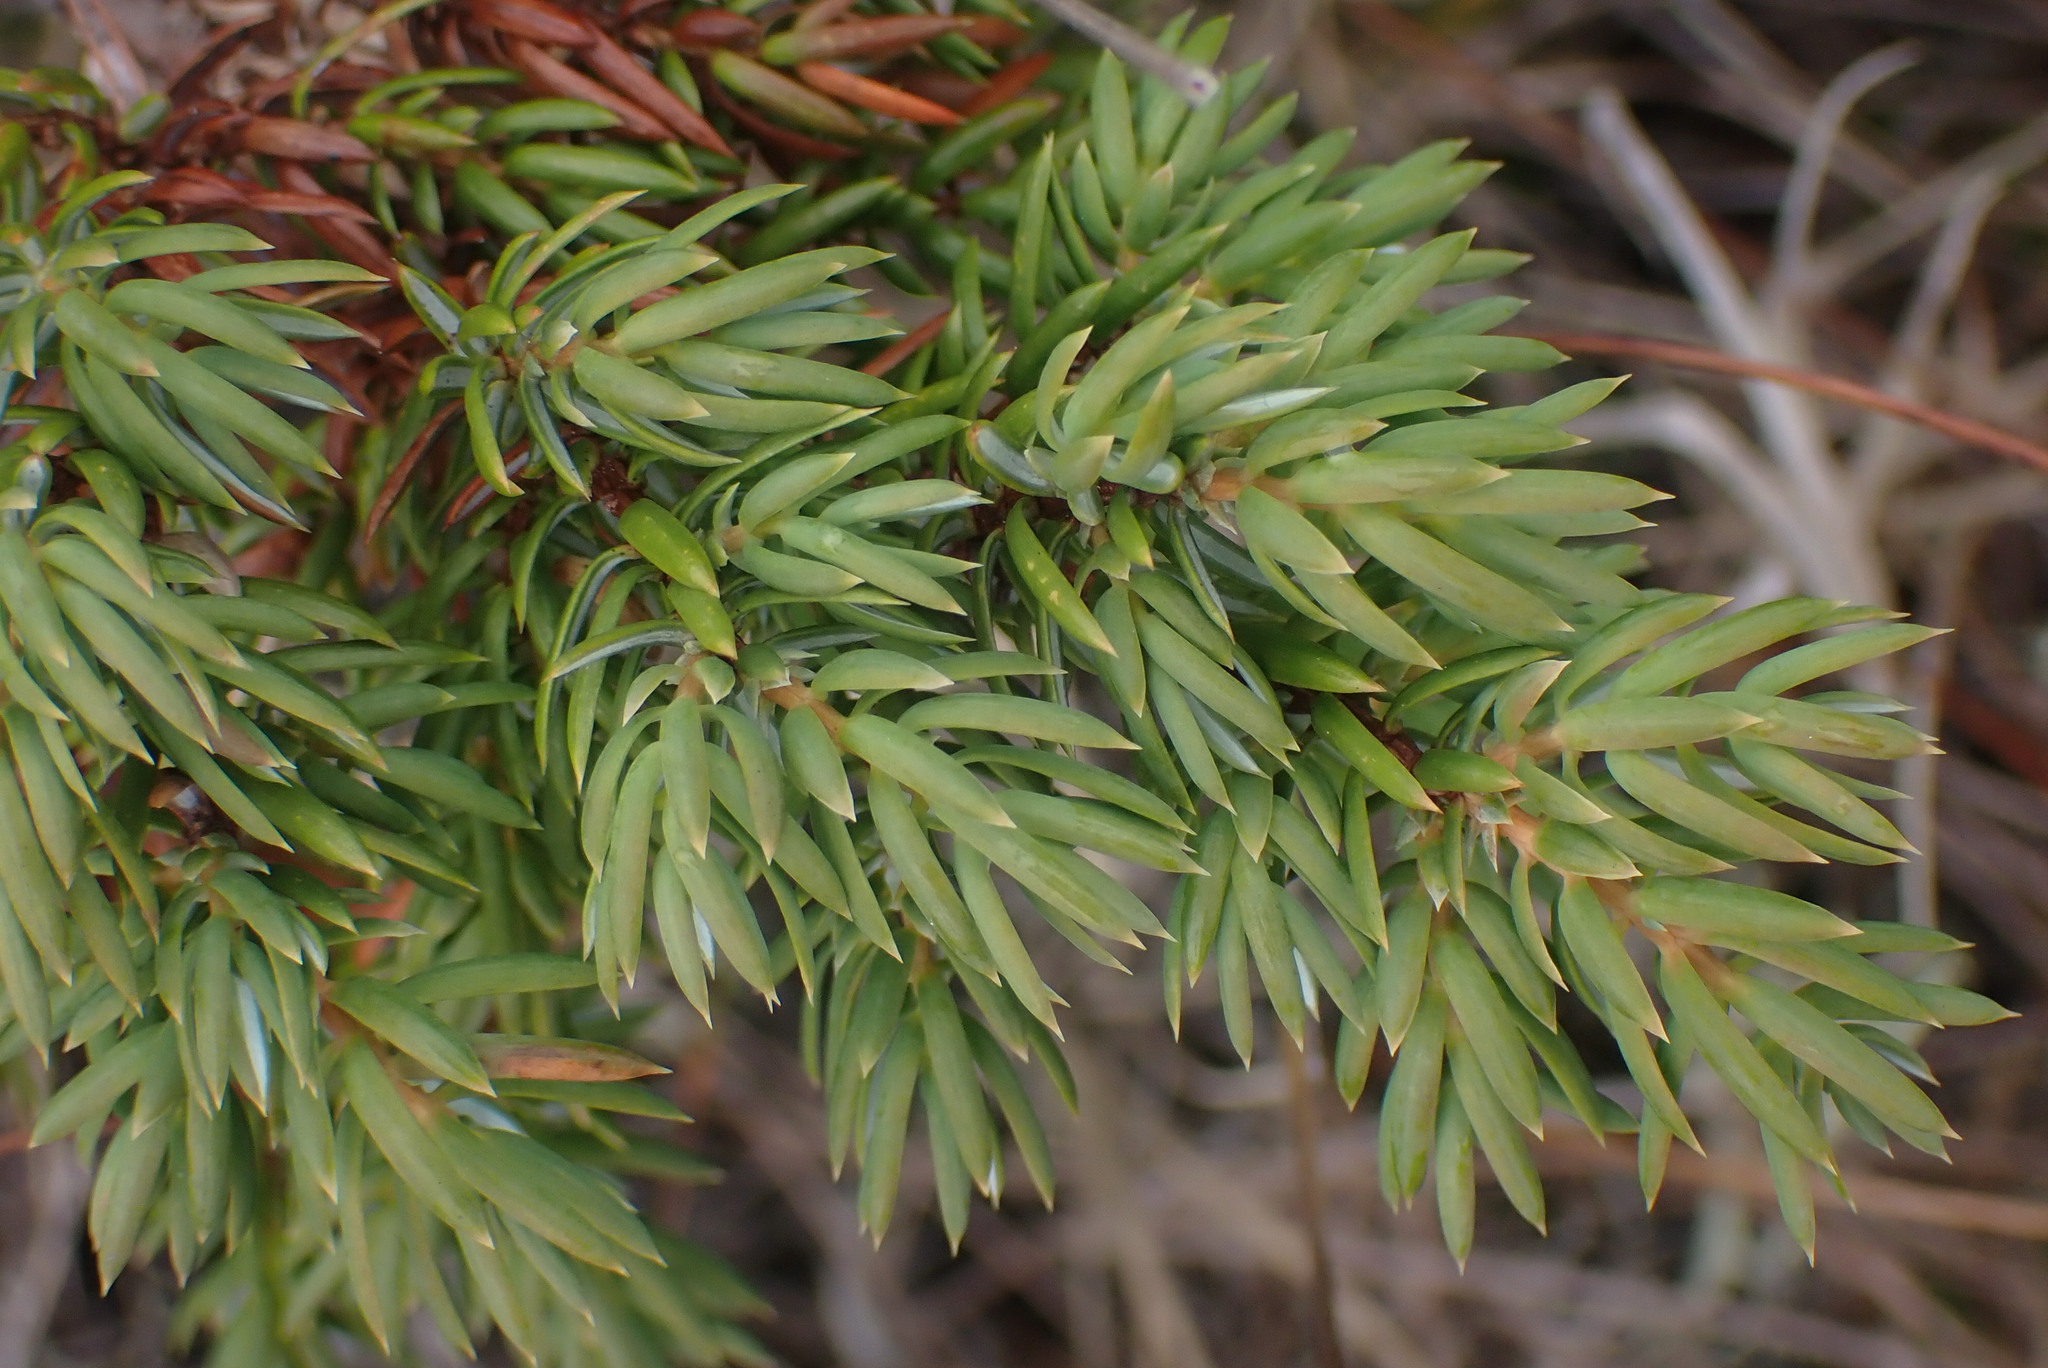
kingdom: Plantae
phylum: Tracheophyta
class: Pinopsida
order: Pinales
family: Cupressaceae
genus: Juniperus
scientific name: Juniperus communis
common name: Common juniper
